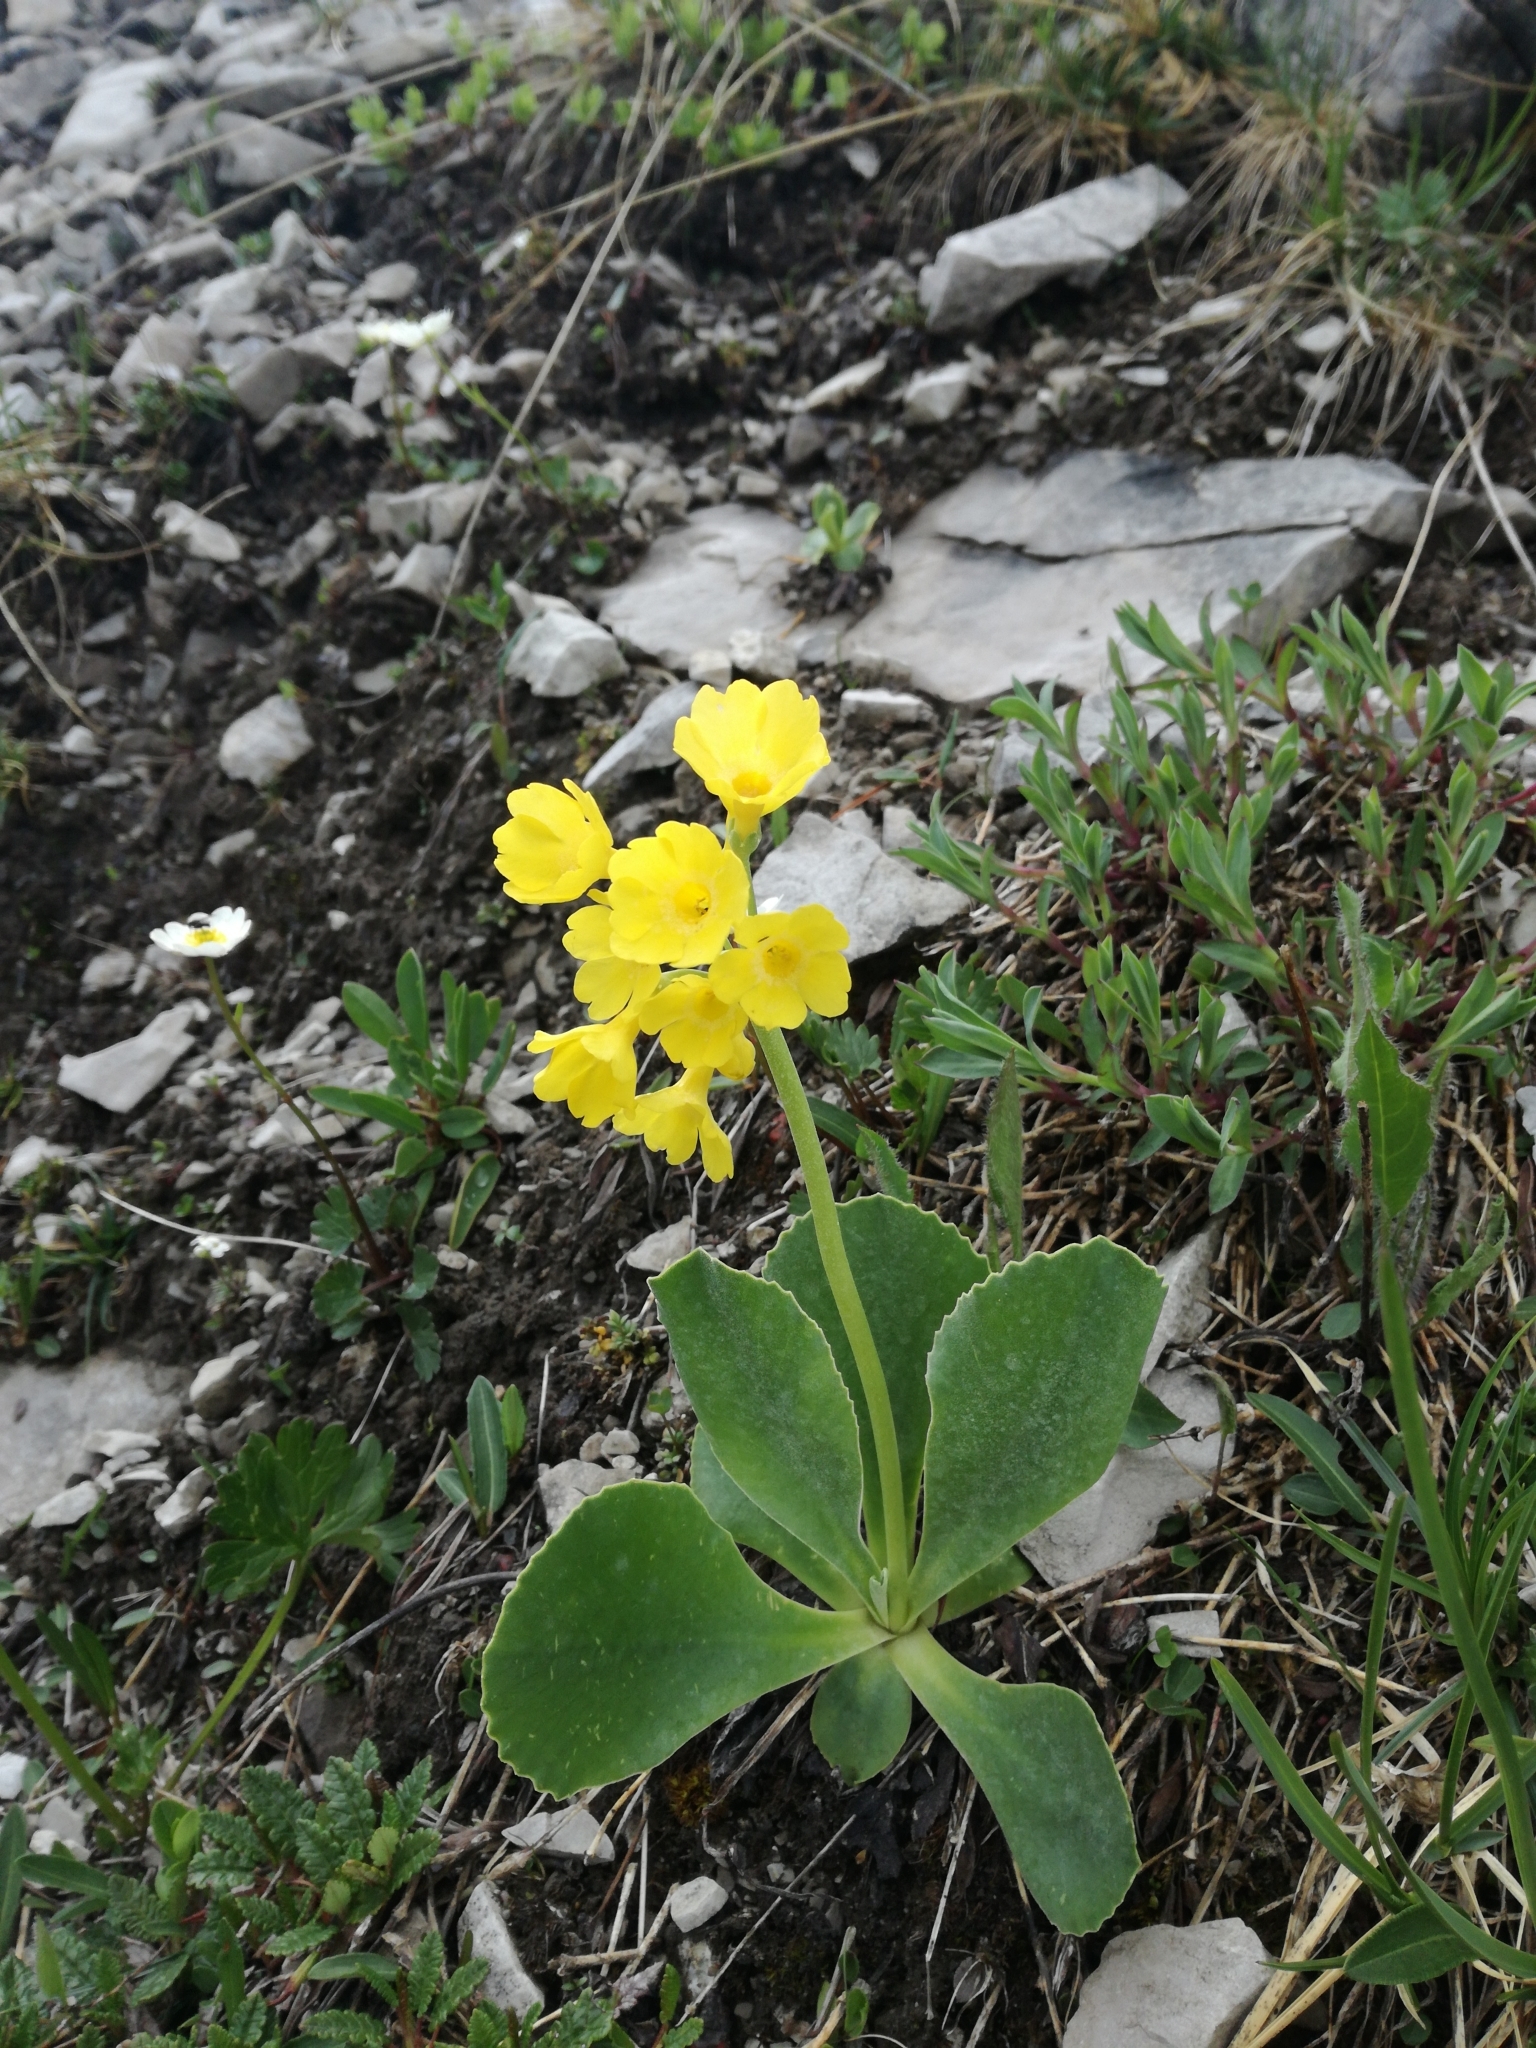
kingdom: Plantae
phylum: Tracheophyta
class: Magnoliopsida
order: Ericales
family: Primulaceae
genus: Primula
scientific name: Primula auricula
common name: Auricula
